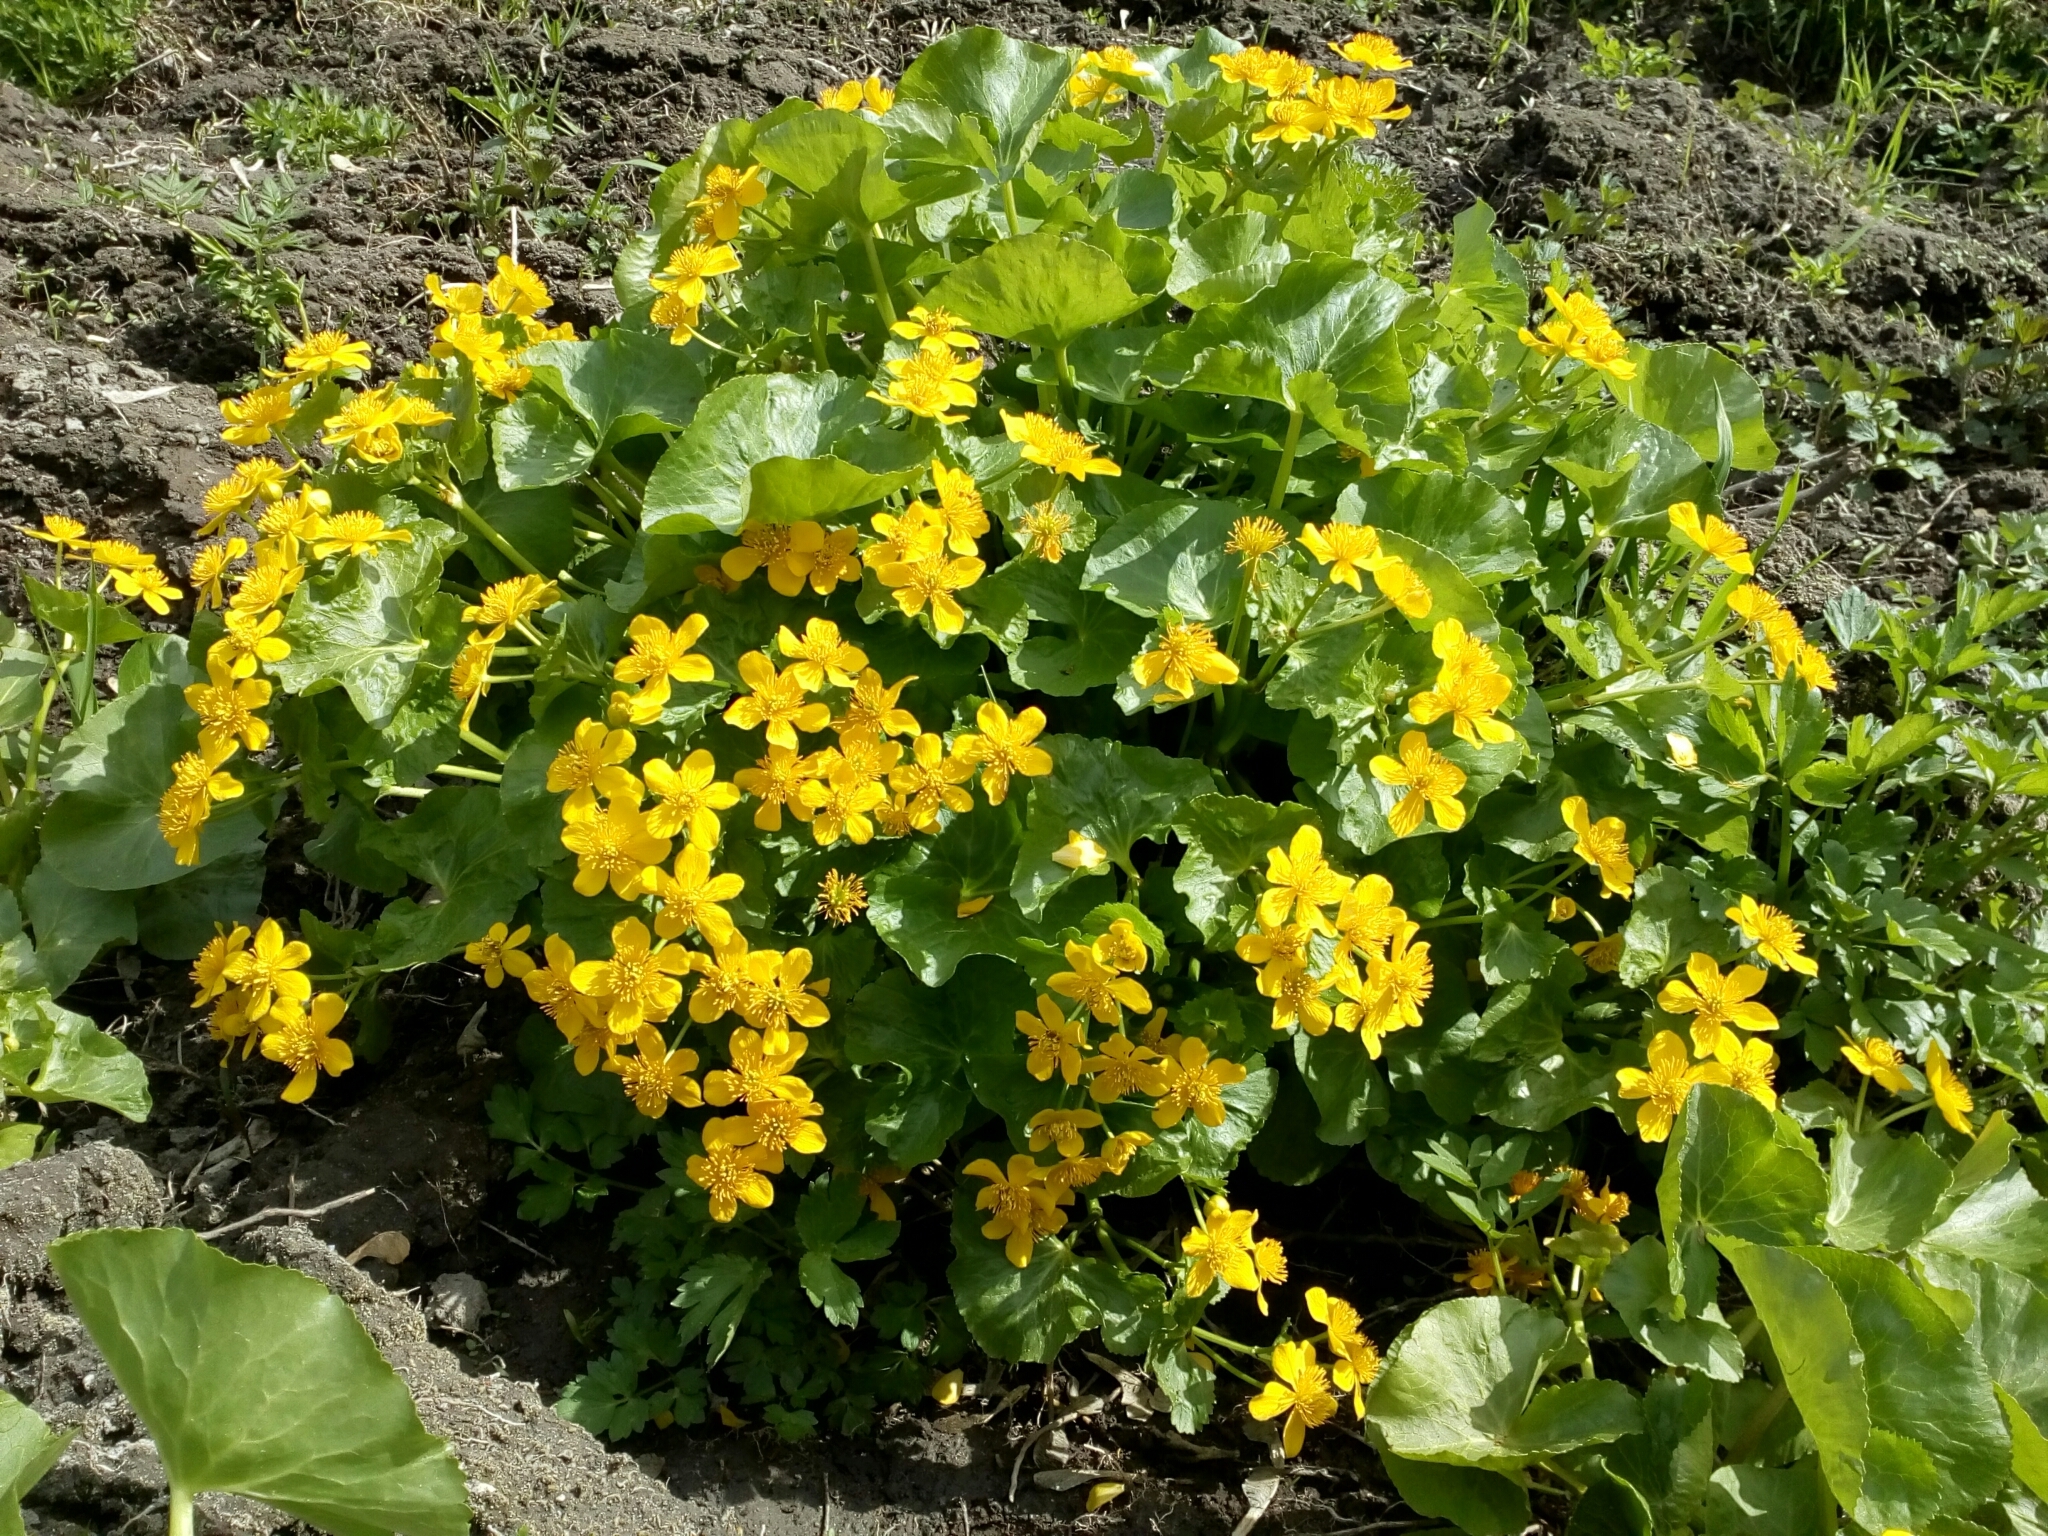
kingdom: Plantae
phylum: Tracheophyta
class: Magnoliopsida
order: Ranunculales
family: Ranunculaceae
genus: Caltha
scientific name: Caltha palustris
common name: Marsh marigold
